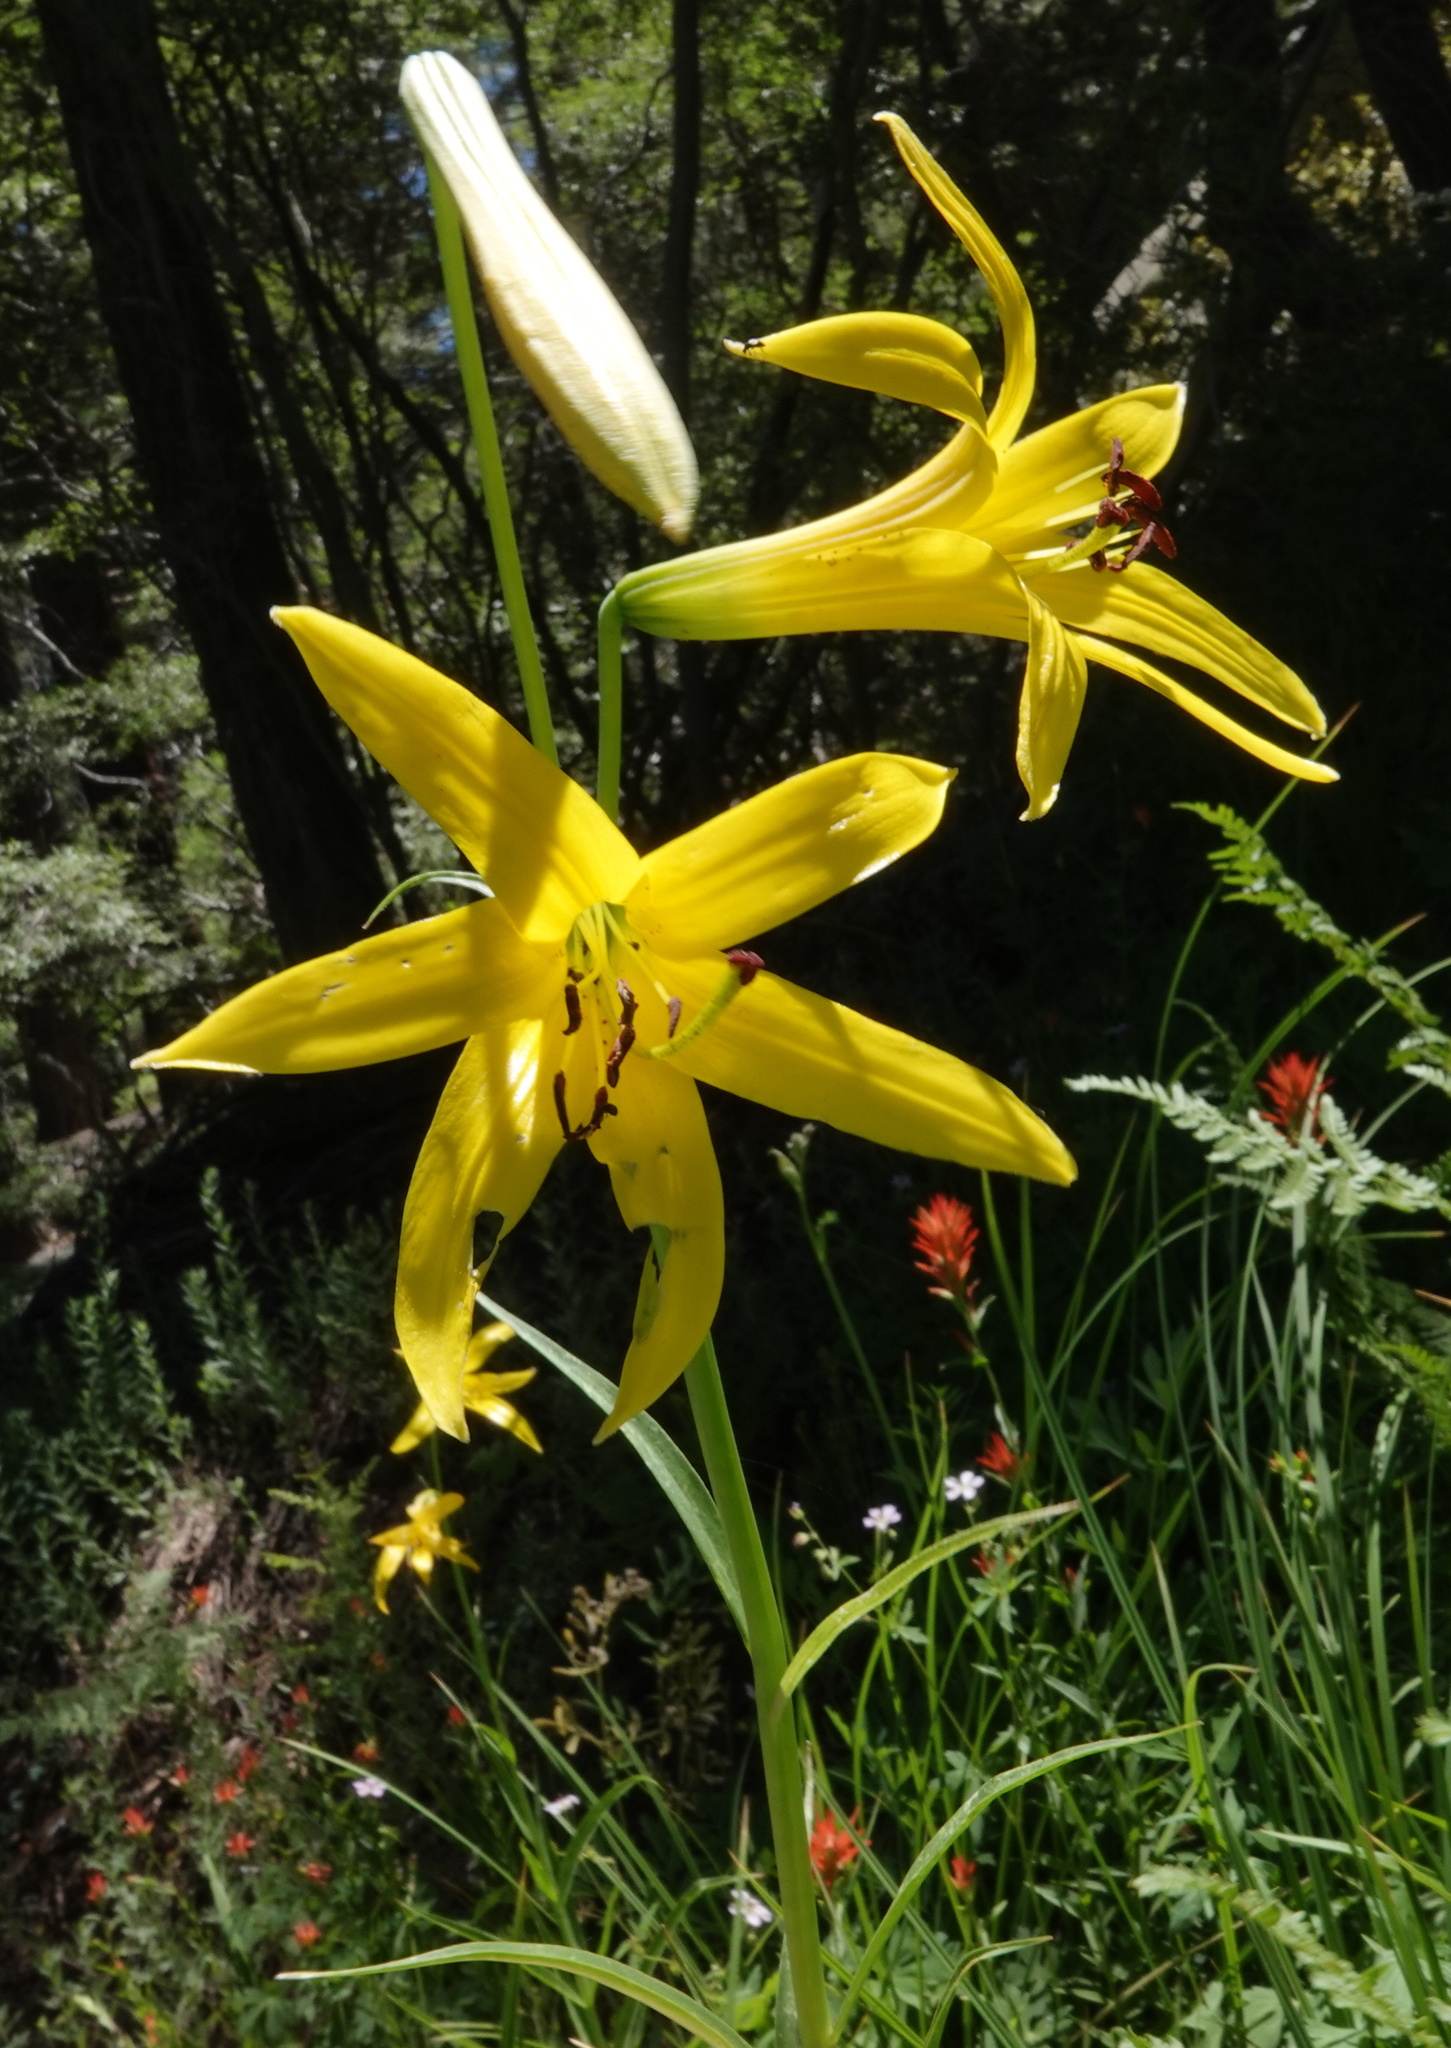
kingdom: Plantae
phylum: Tracheophyta
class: Liliopsida
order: Liliales
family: Liliaceae
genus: Lilium
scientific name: Lilium parryi
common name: Lemon lily
